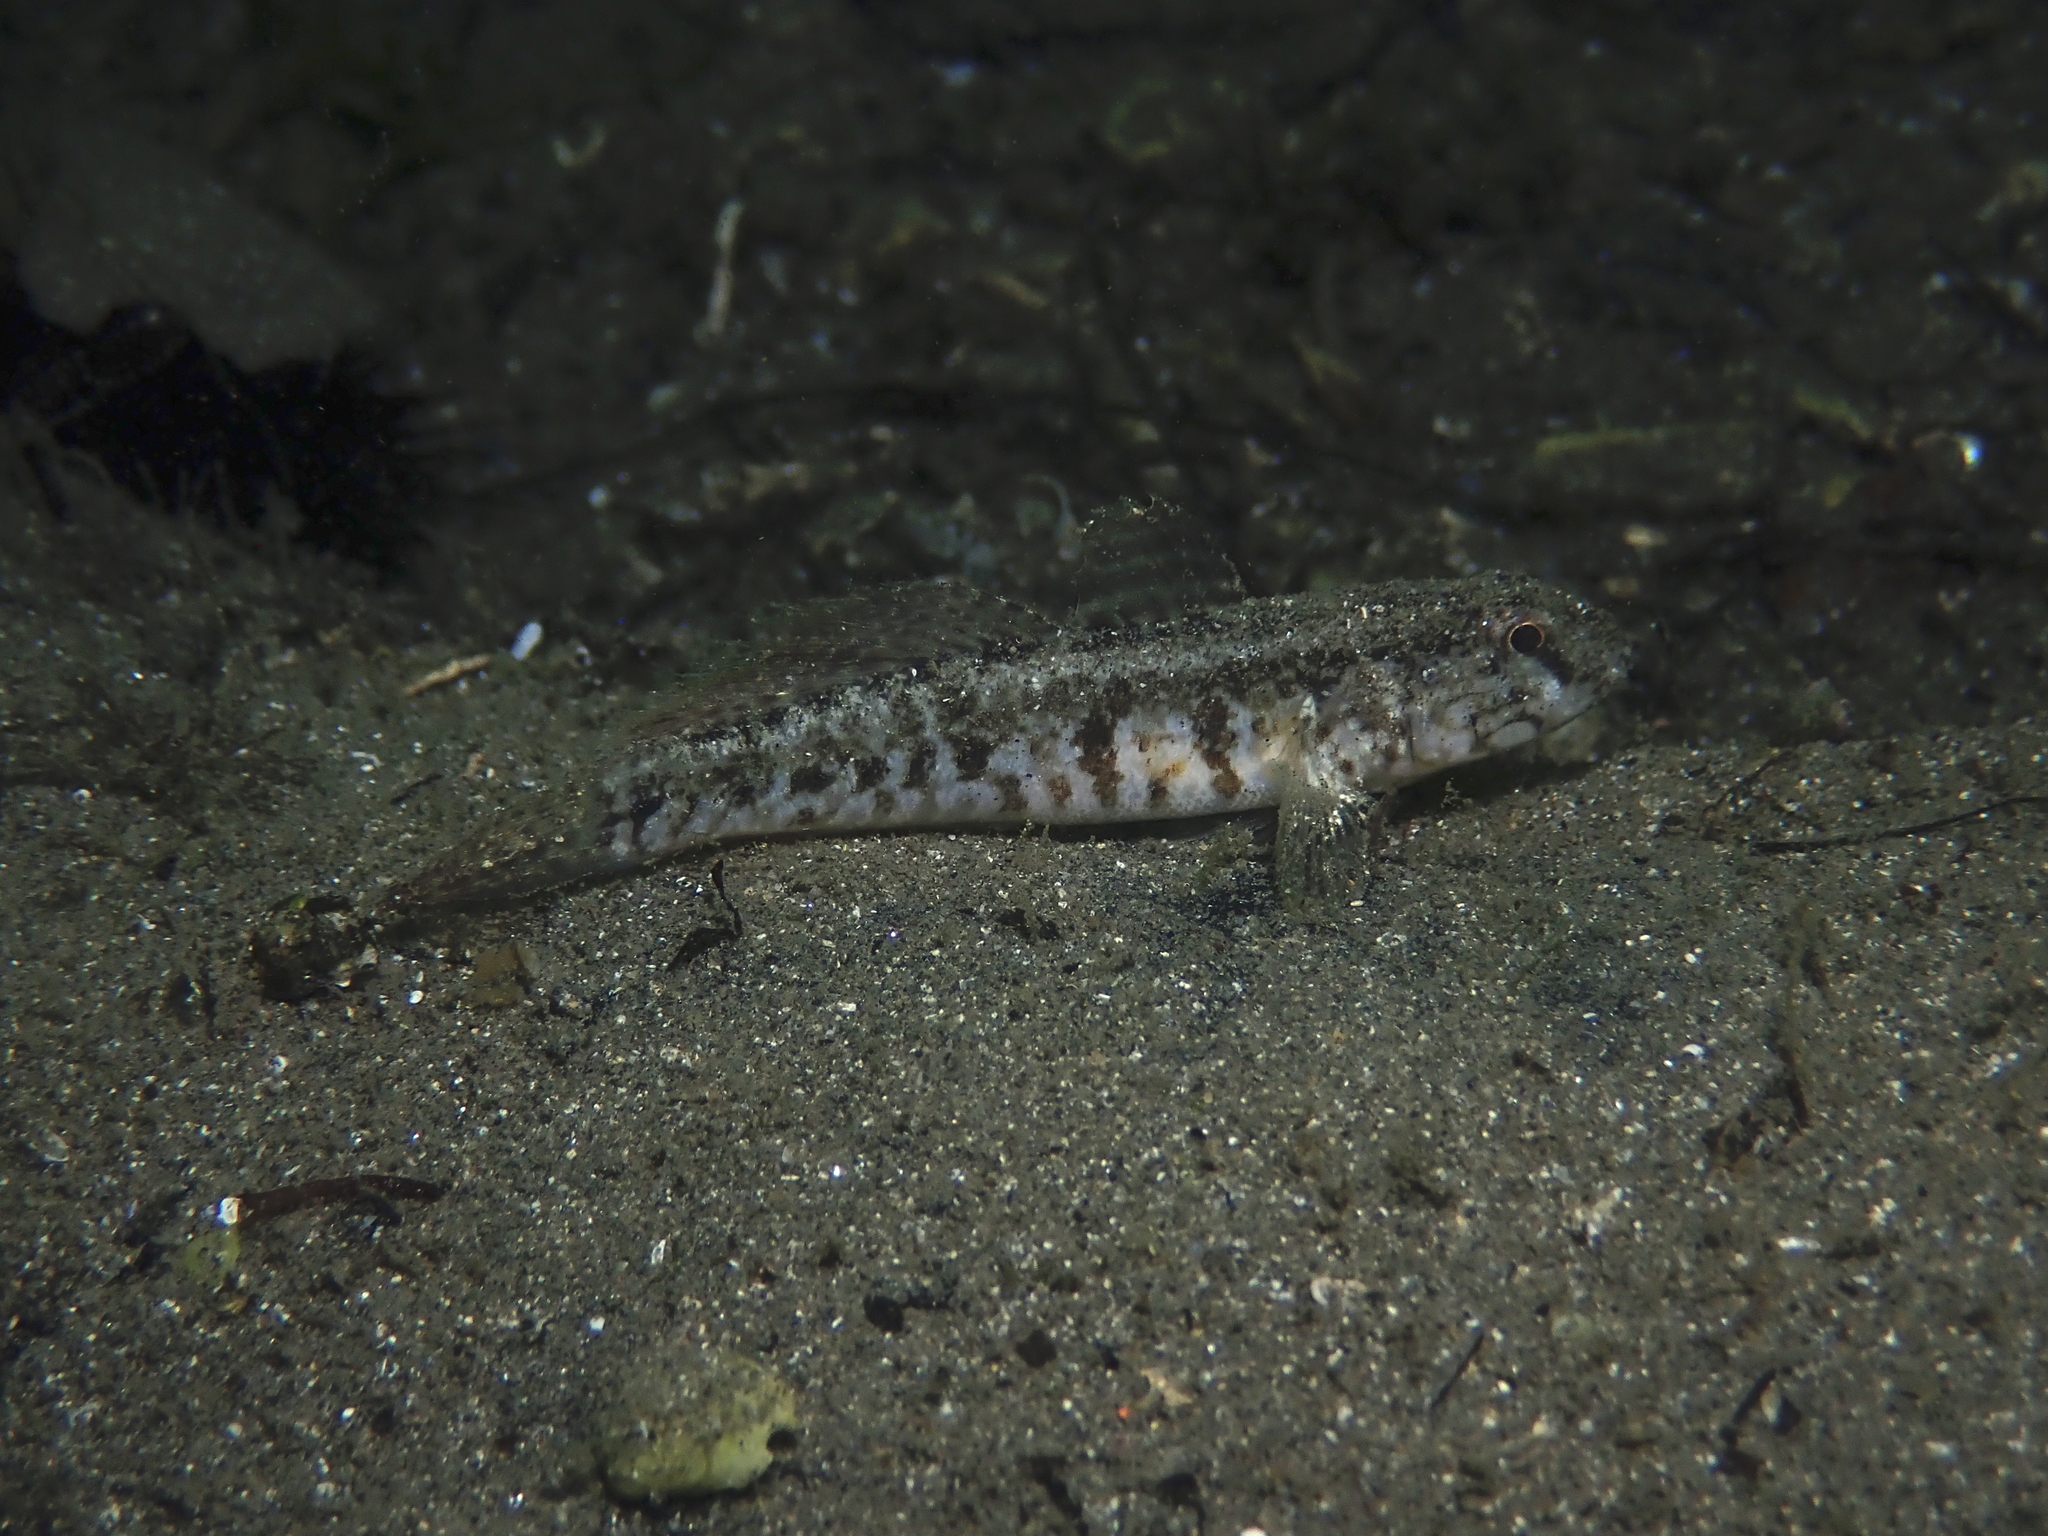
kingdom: Animalia
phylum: Chordata
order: Perciformes
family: Gobiidae
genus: Zosterisessor
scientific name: Zosterisessor ophiocephalus
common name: Grass goby
